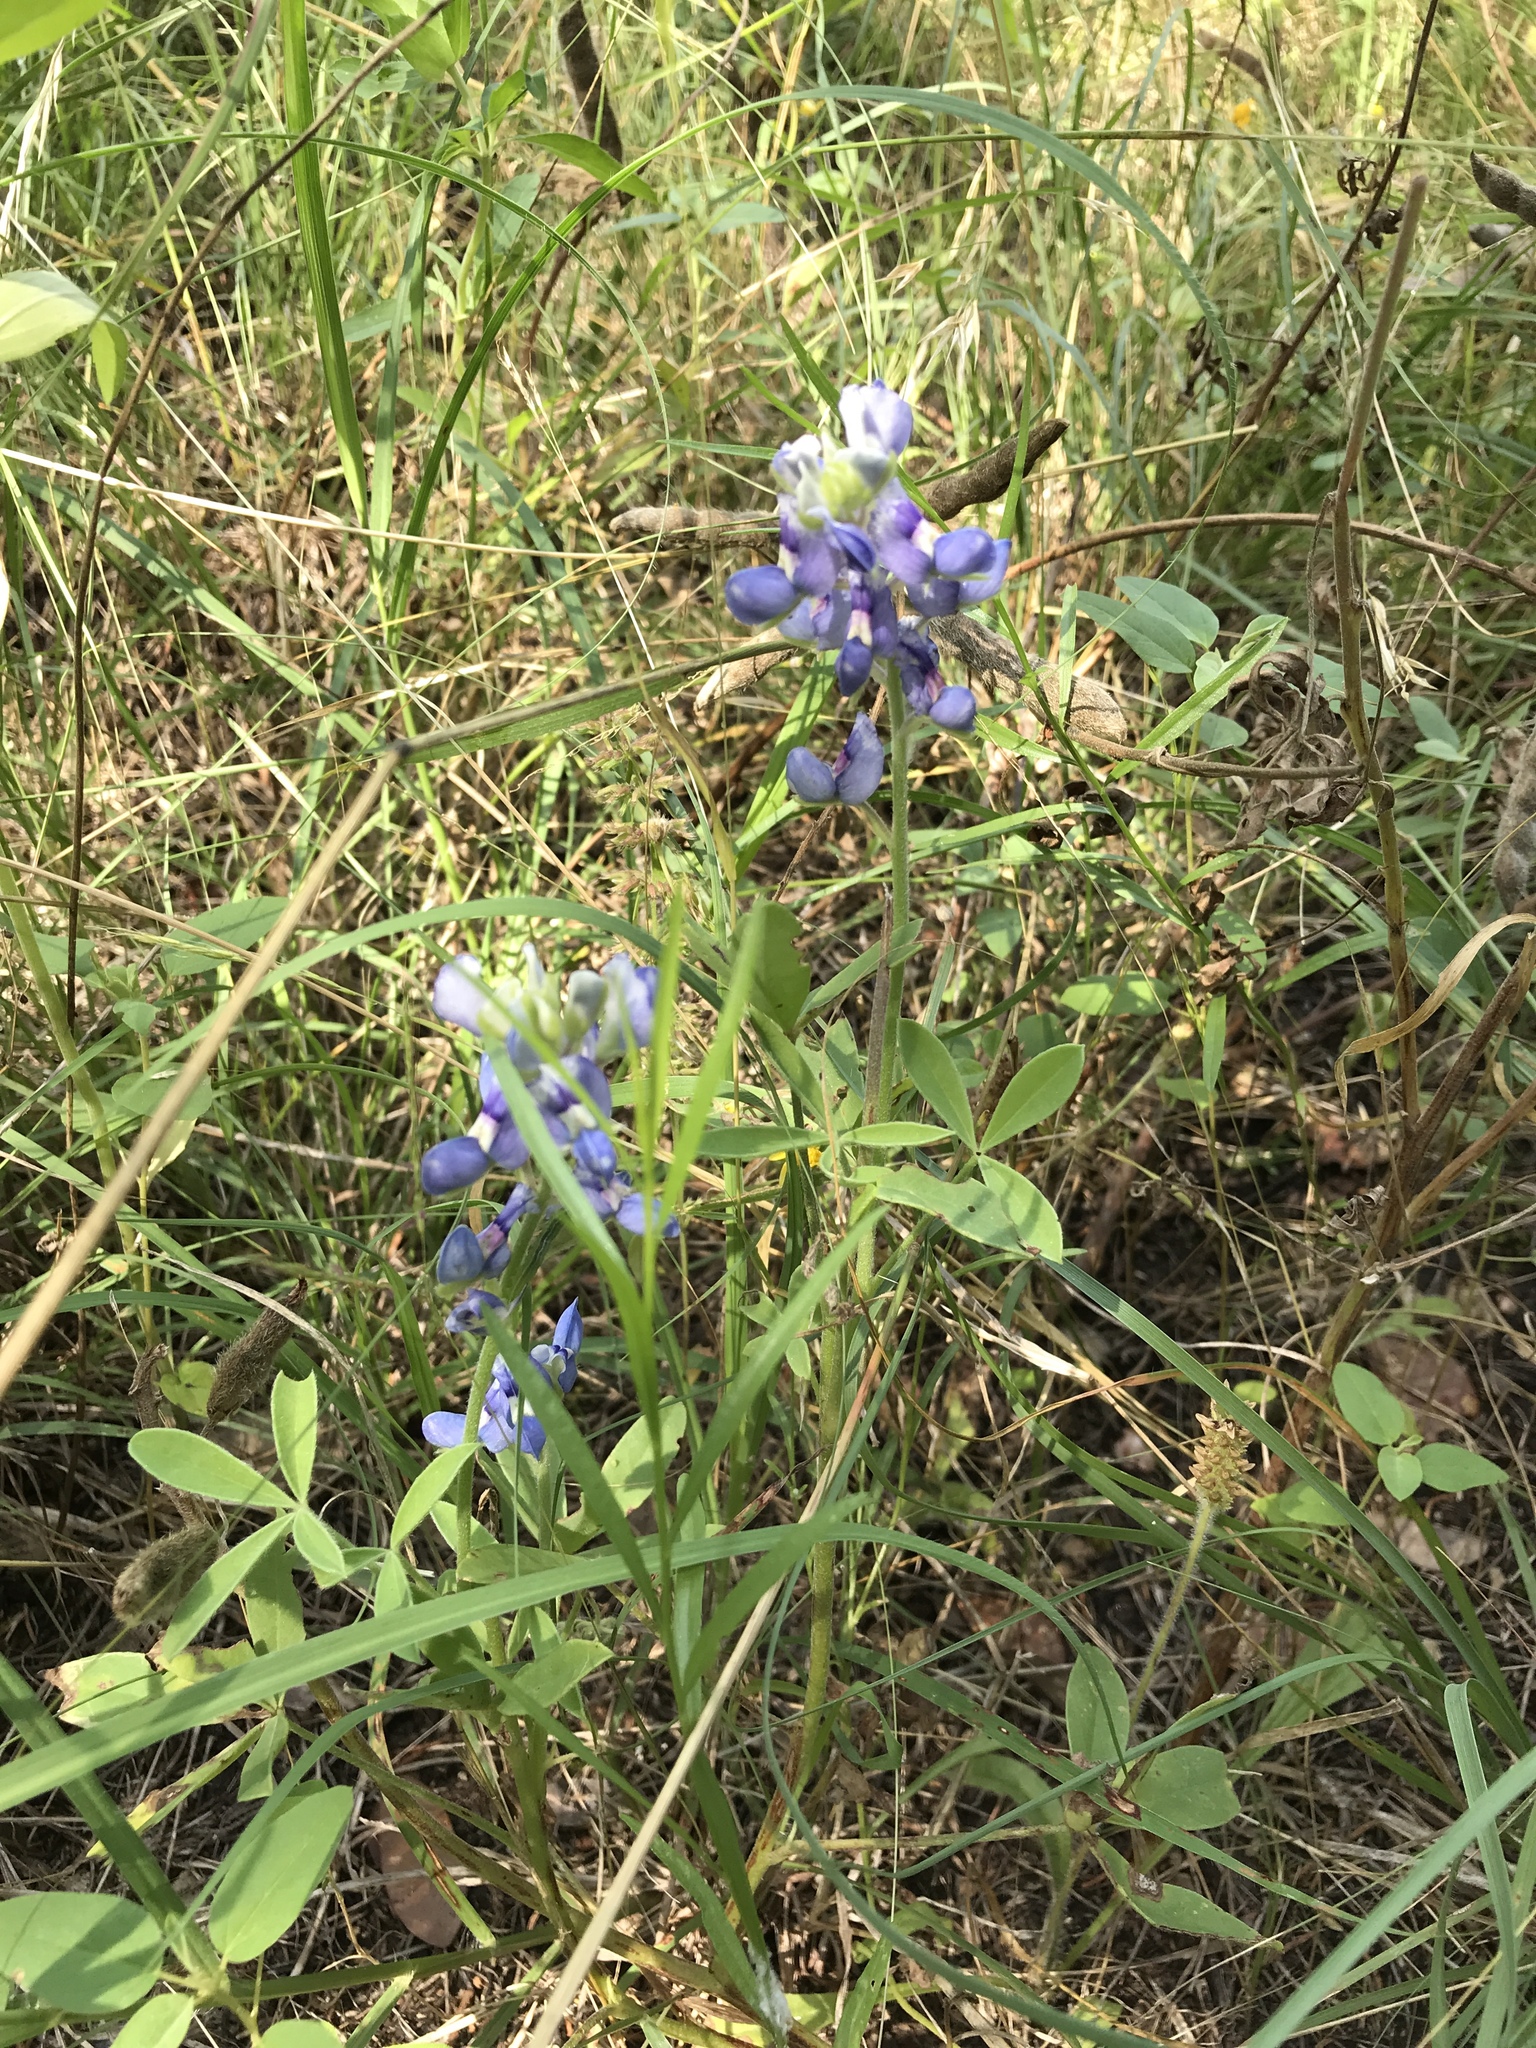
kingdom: Plantae
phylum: Tracheophyta
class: Magnoliopsida
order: Fabales
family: Fabaceae
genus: Lupinus
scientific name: Lupinus texensis
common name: Texas bluebonnet
